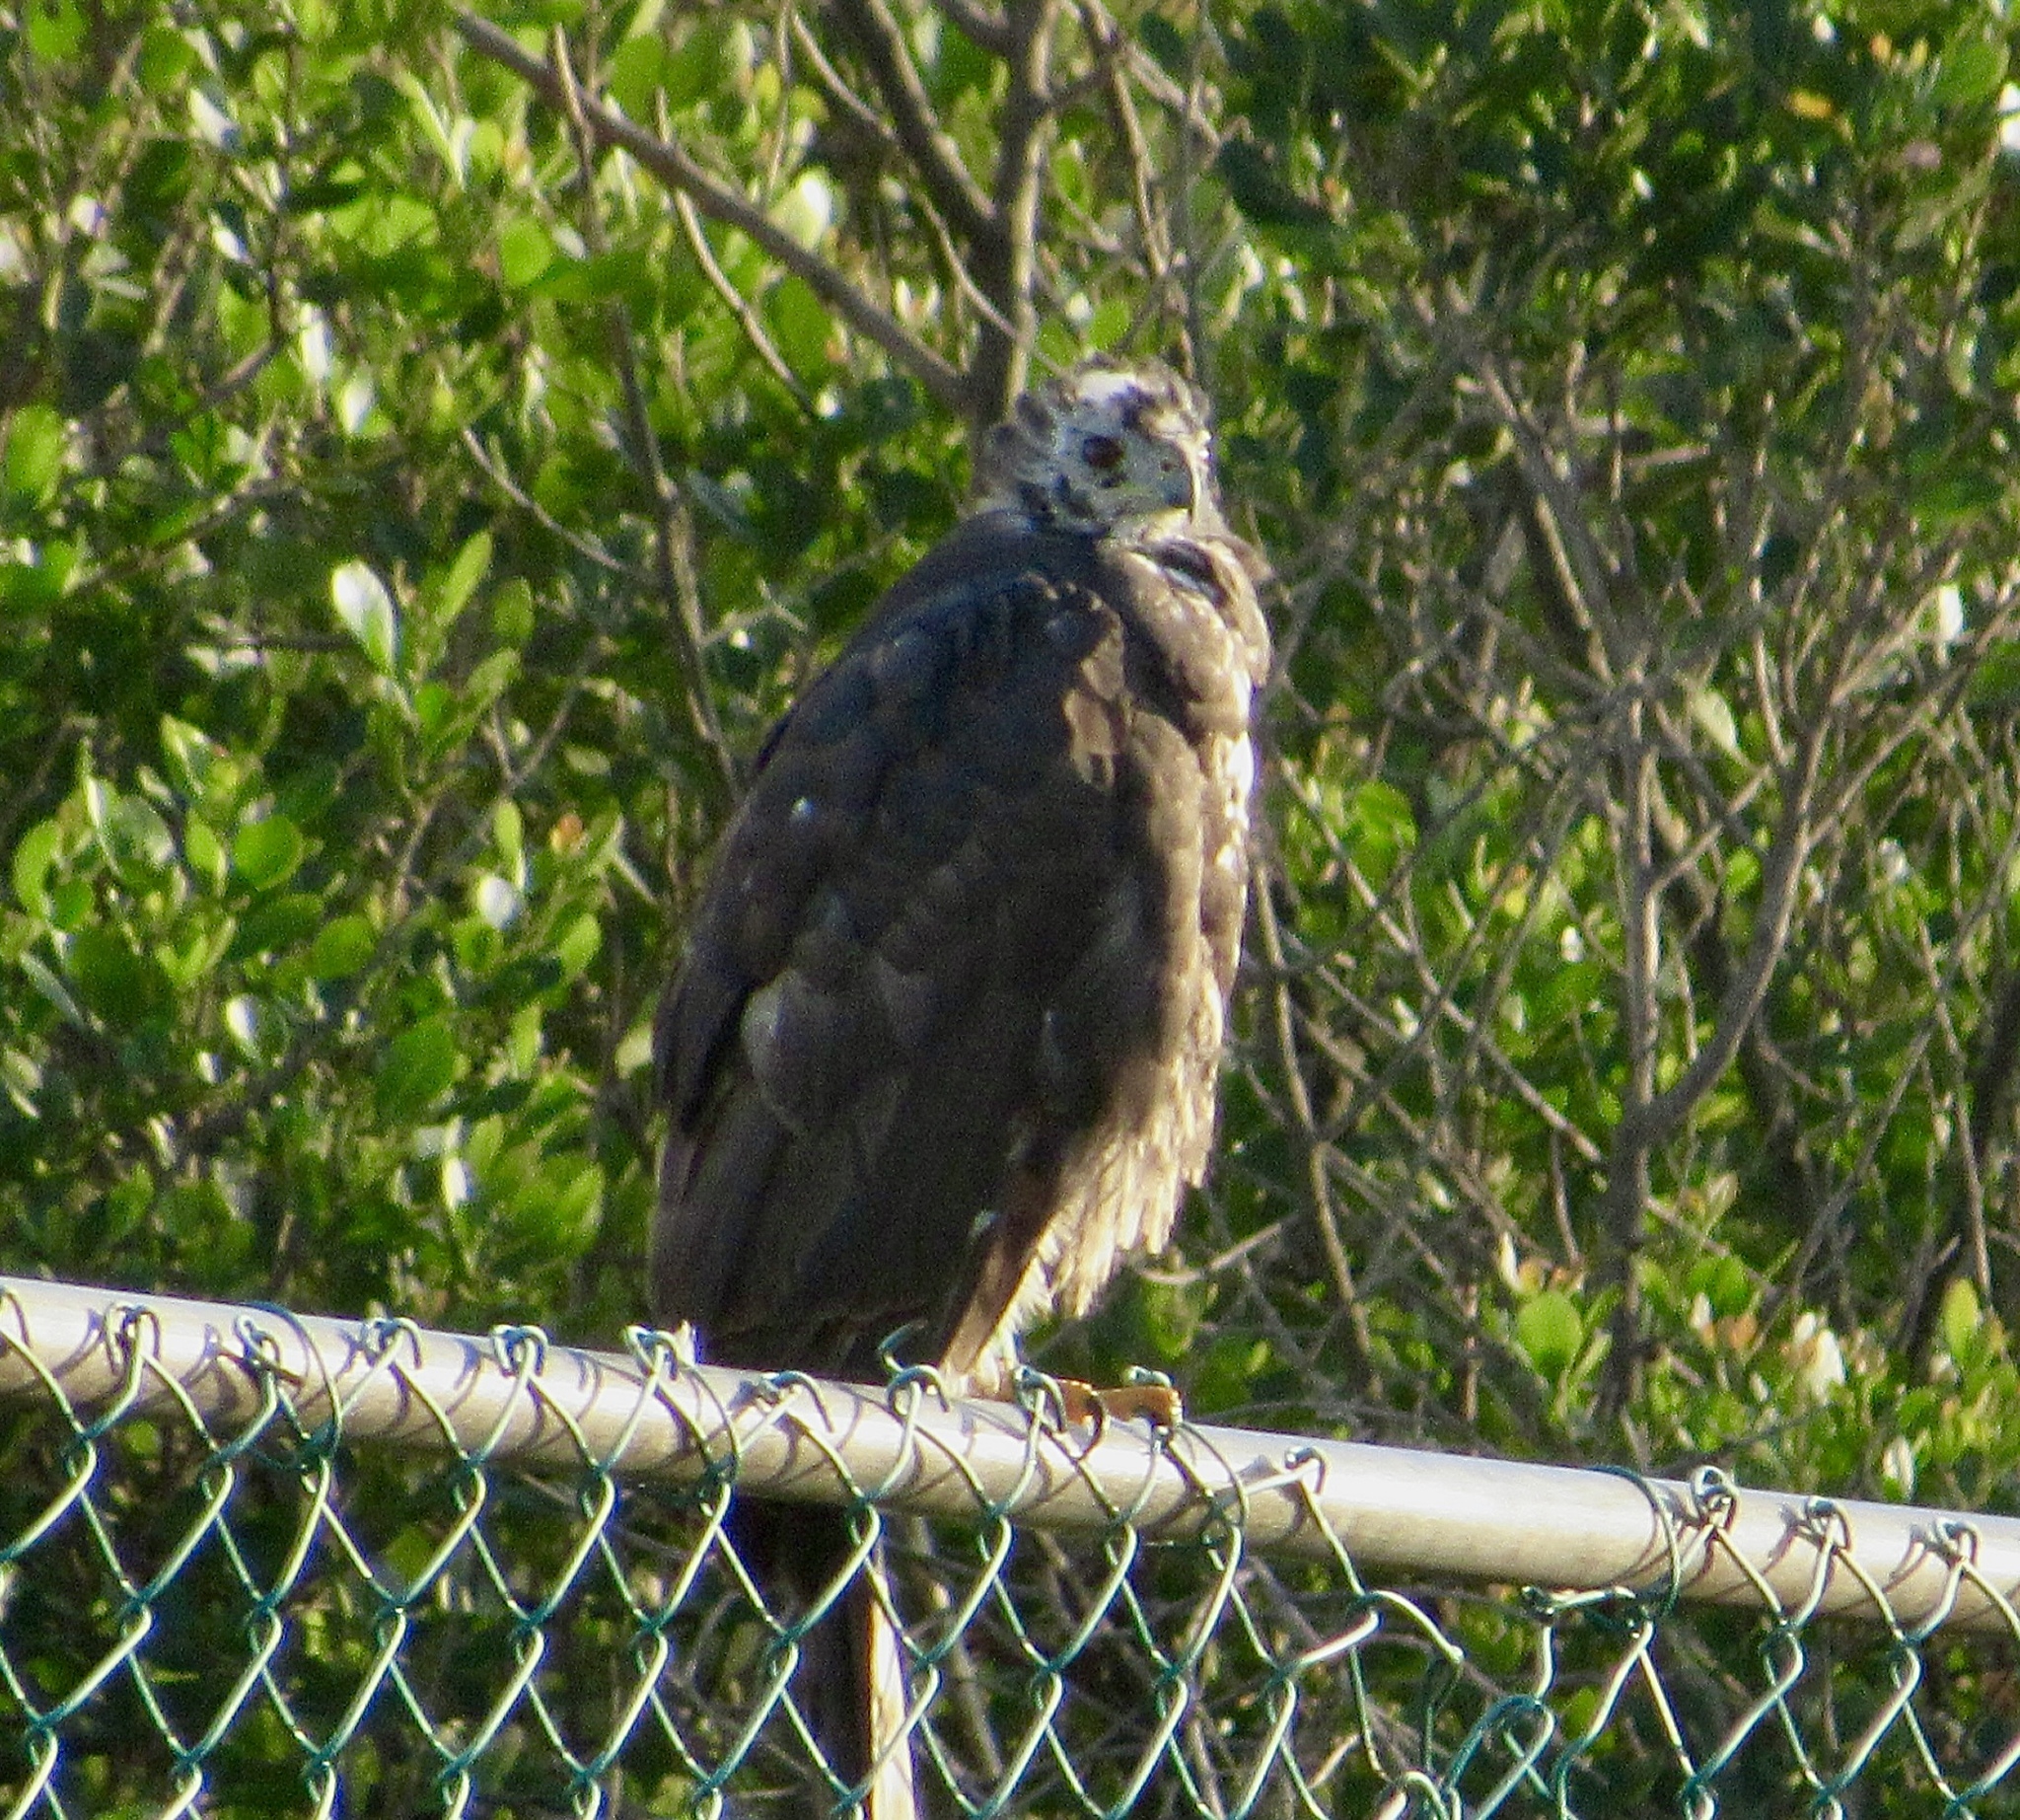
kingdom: Animalia
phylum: Chordata
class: Aves
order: Accipitriformes
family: Accipitridae
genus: Accipiter
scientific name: Accipiter melanoleucus
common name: Black sparrowhawk
